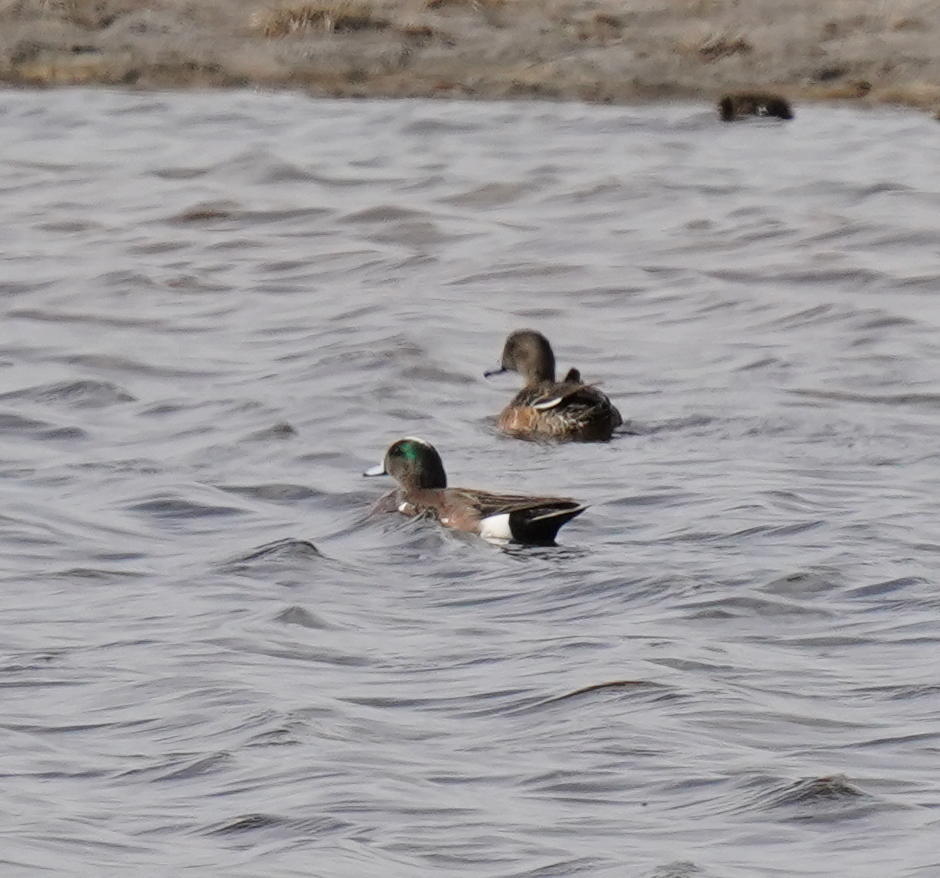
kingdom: Animalia
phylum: Chordata
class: Aves
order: Anseriformes
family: Anatidae
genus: Mareca
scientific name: Mareca americana
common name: American wigeon
